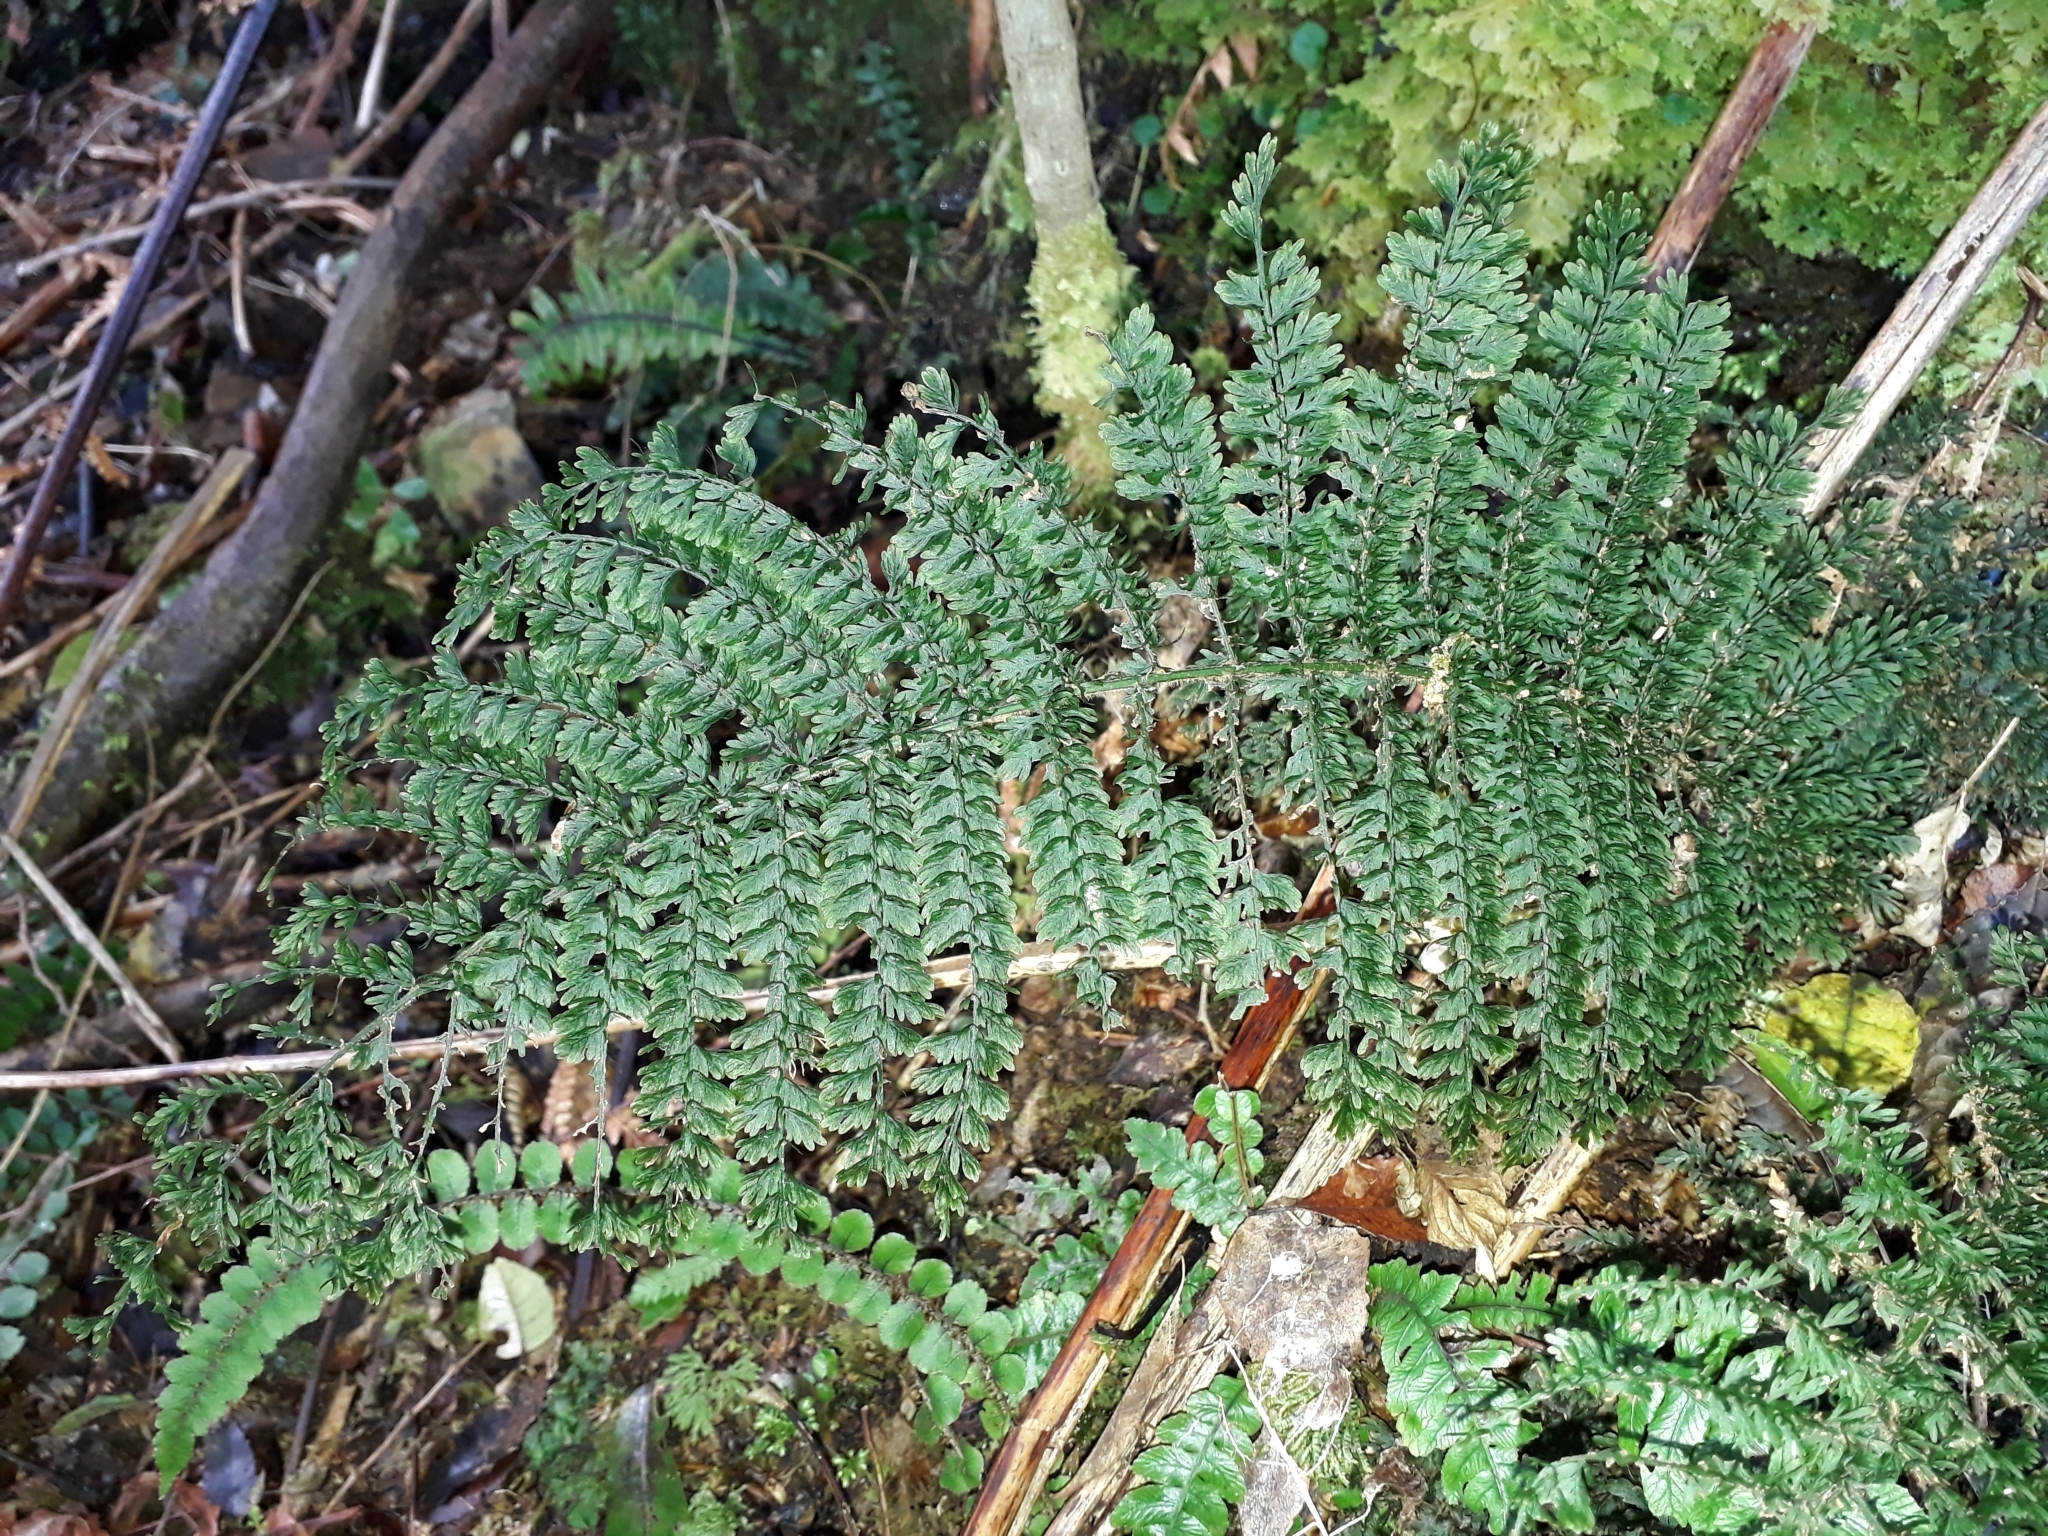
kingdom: Plantae
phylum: Tracheophyta
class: Polypodiopsida
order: Osmundales
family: Osmundaceae
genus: Leptopteris
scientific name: Leptopteris superba
